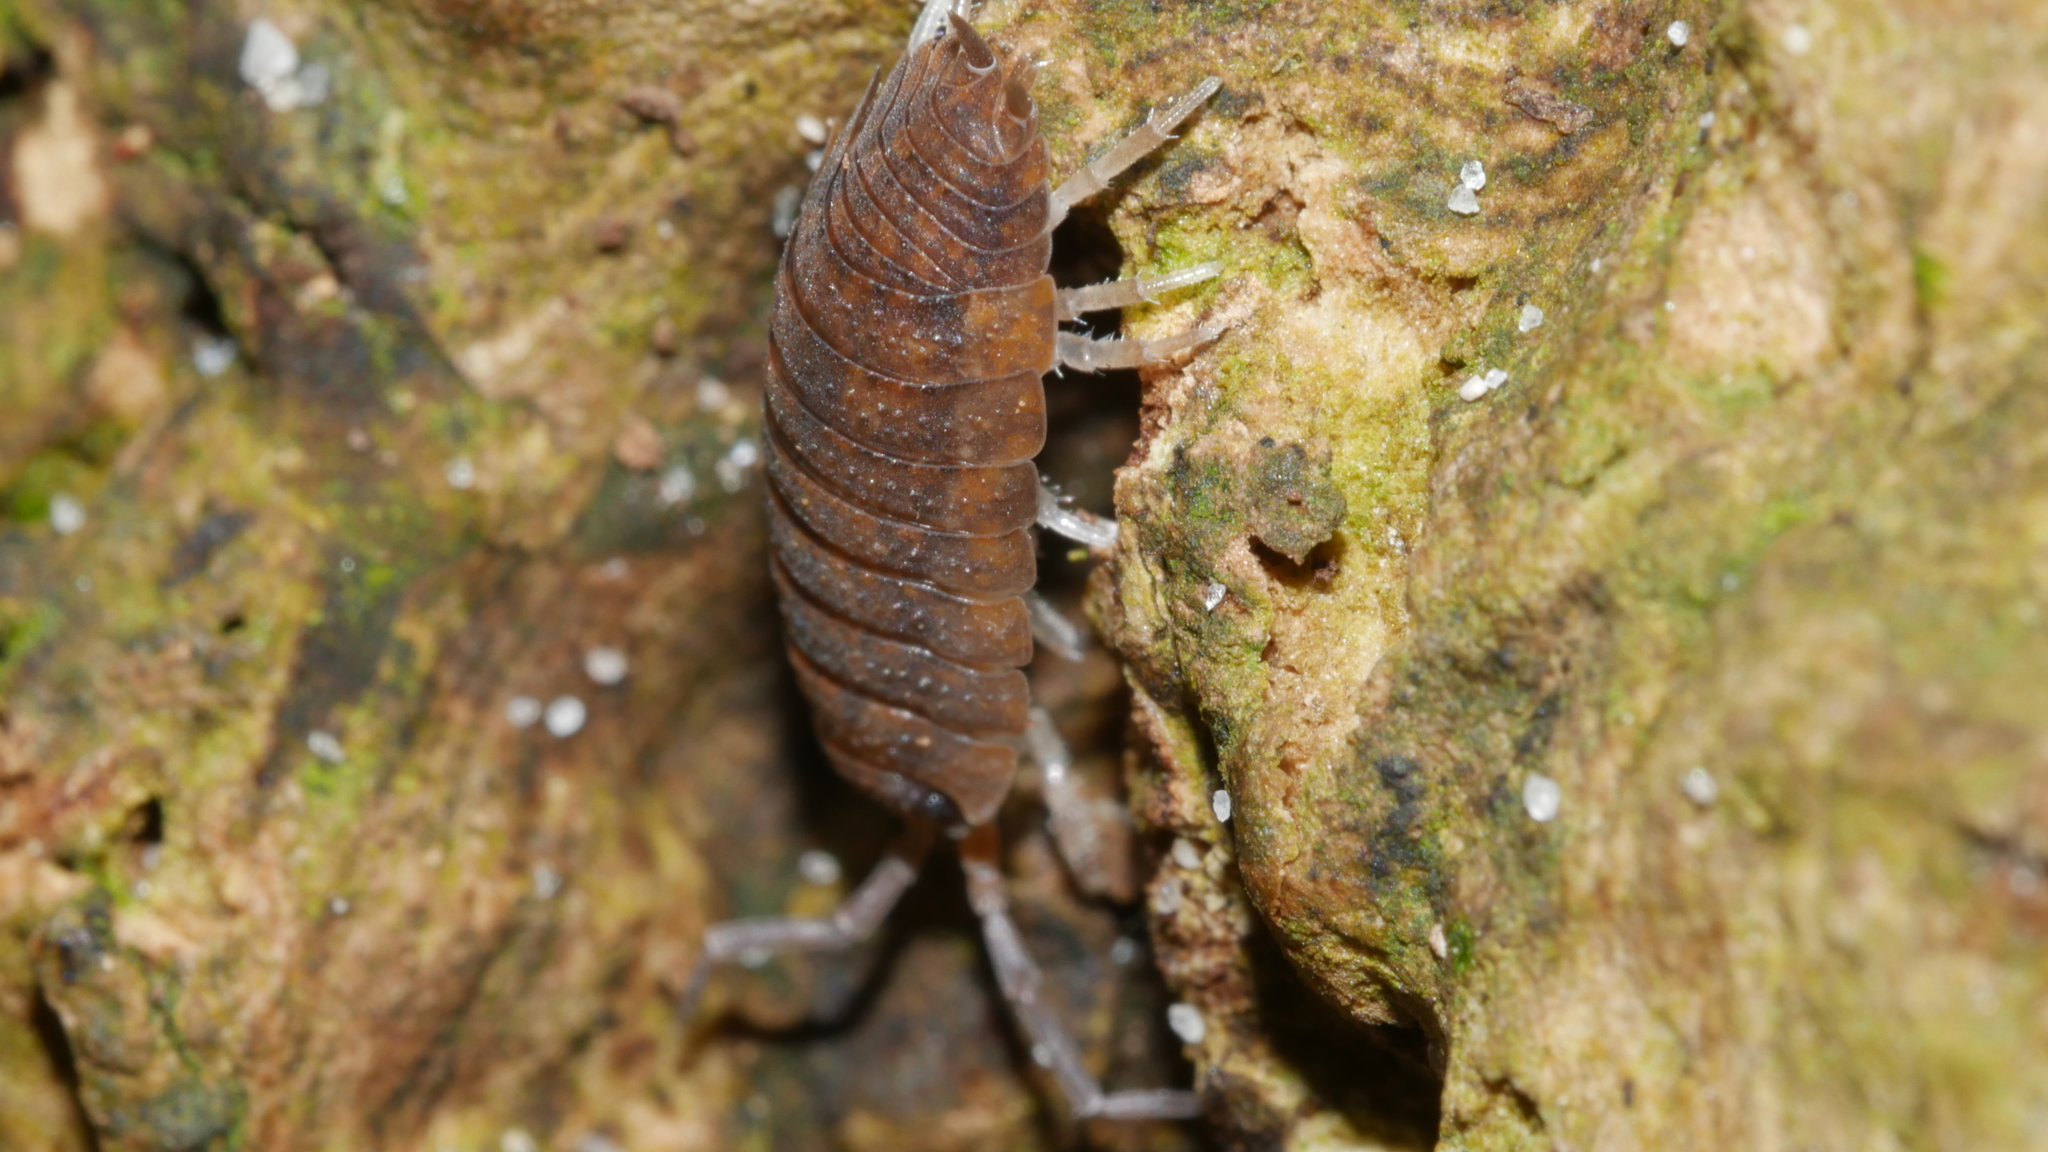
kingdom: Animalia
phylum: Arthropoda
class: Malacostraca
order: Isopoda
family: Porcellionidae
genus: Porcellio
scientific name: Porcellio scaber
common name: Common rough woodlouse
